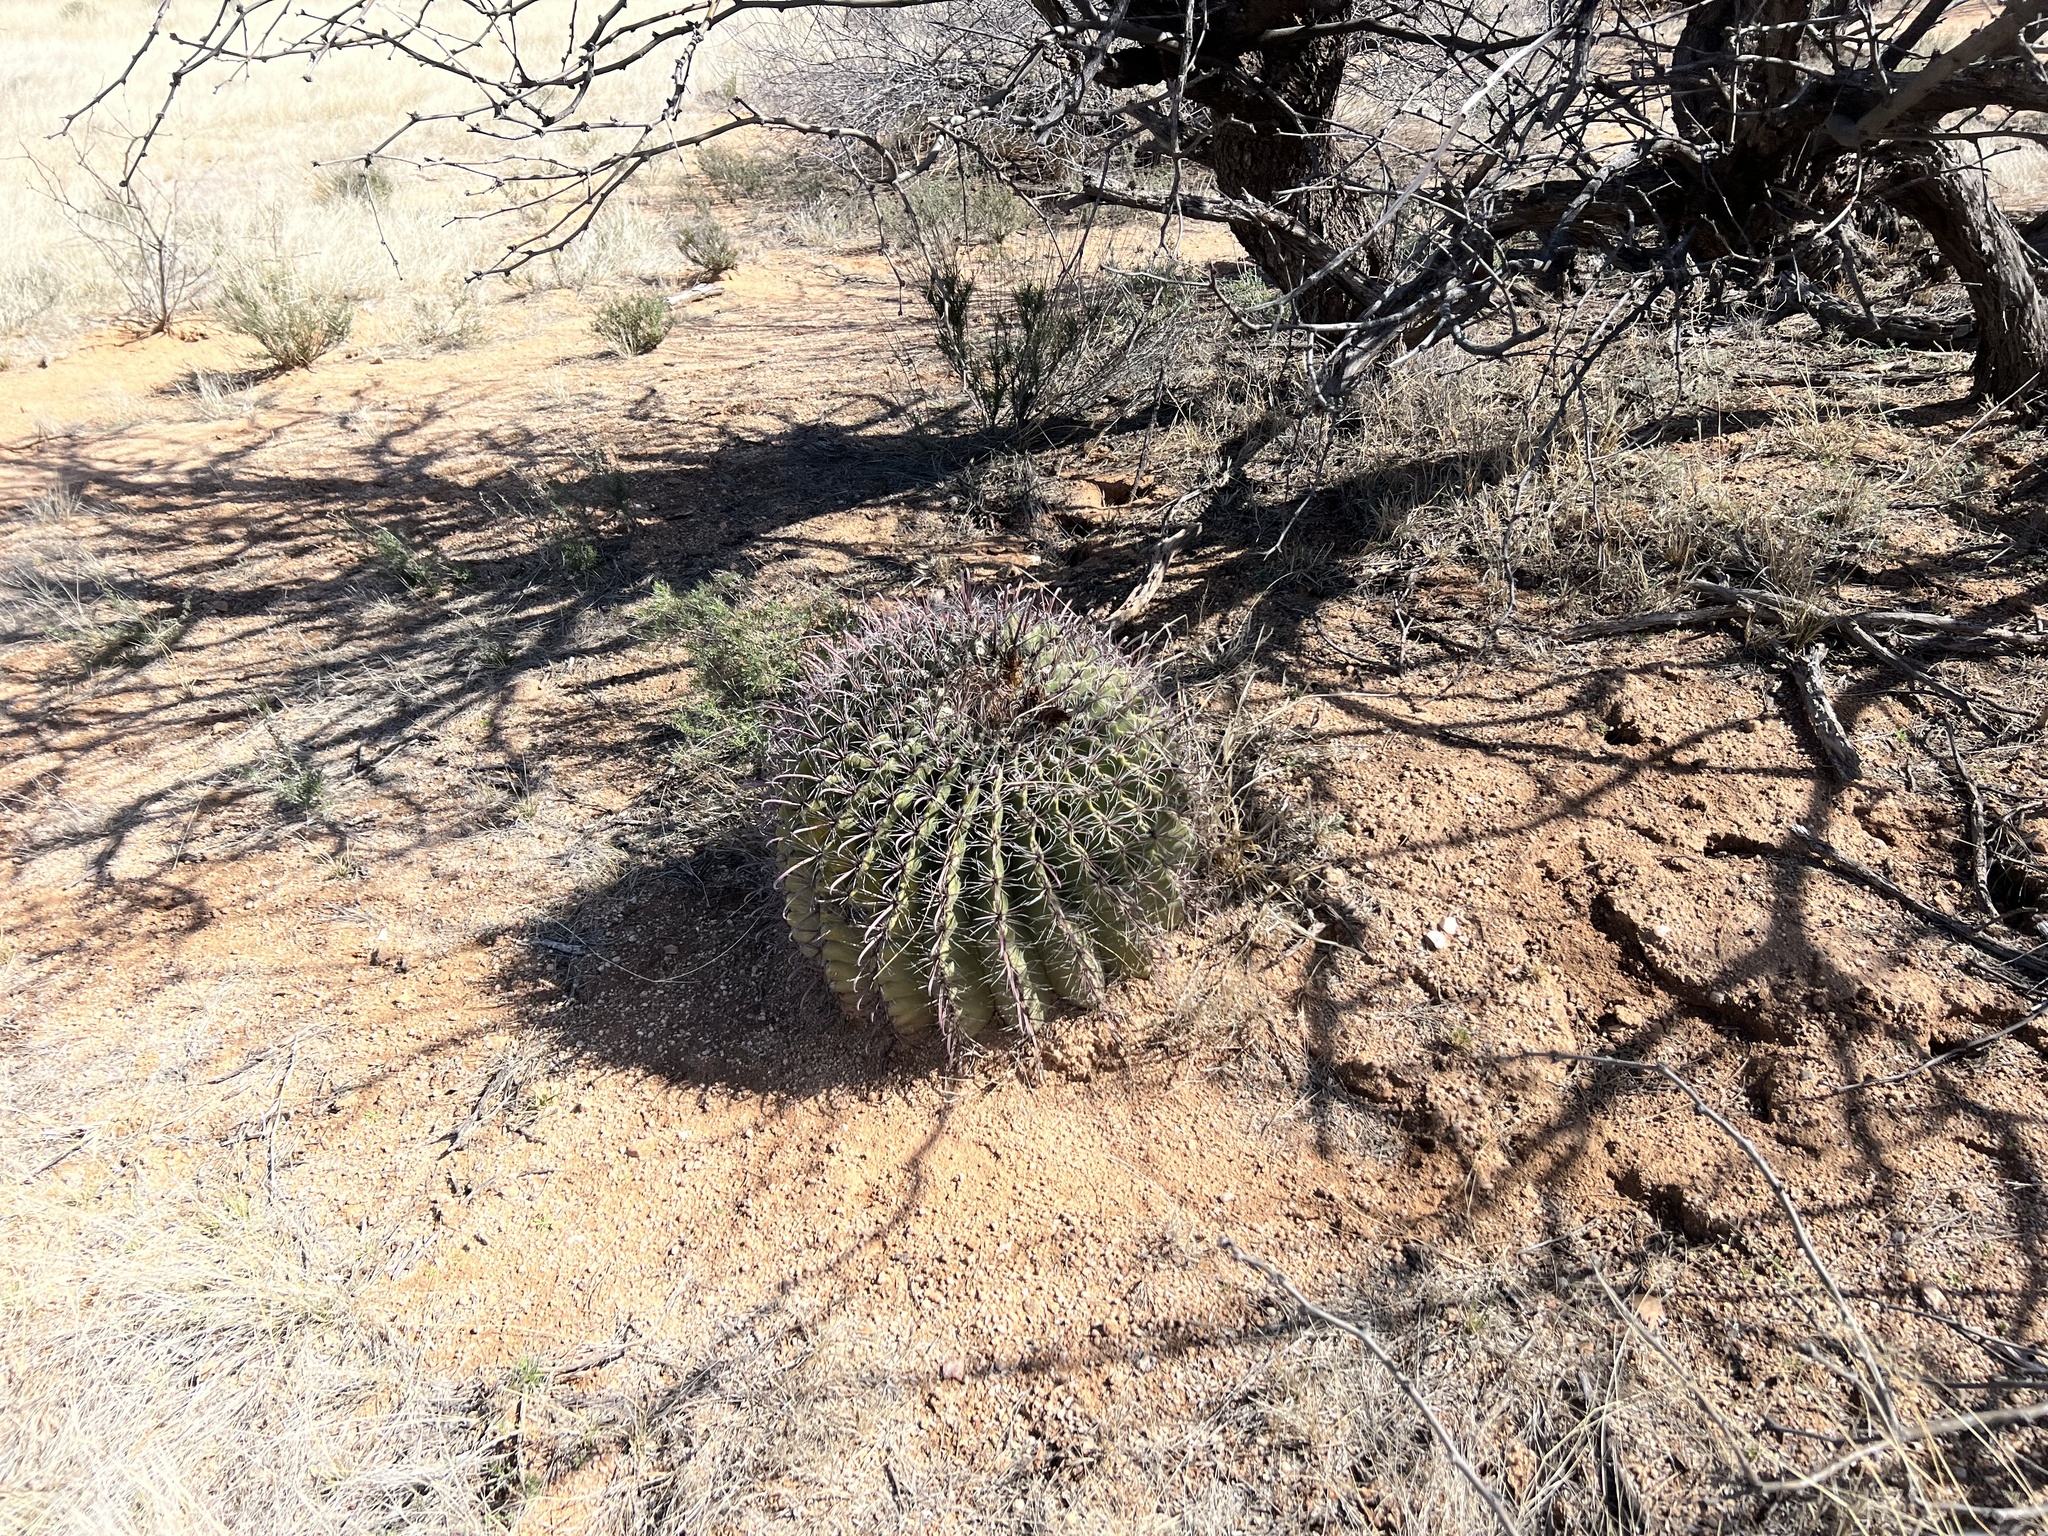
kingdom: Plantae
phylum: Tracheophyta
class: Magnoliopsida
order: Caryophyllales
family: Cactaceae
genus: Ferocactus
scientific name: Ferocactus wislizeni
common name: Candy barrel cactus
